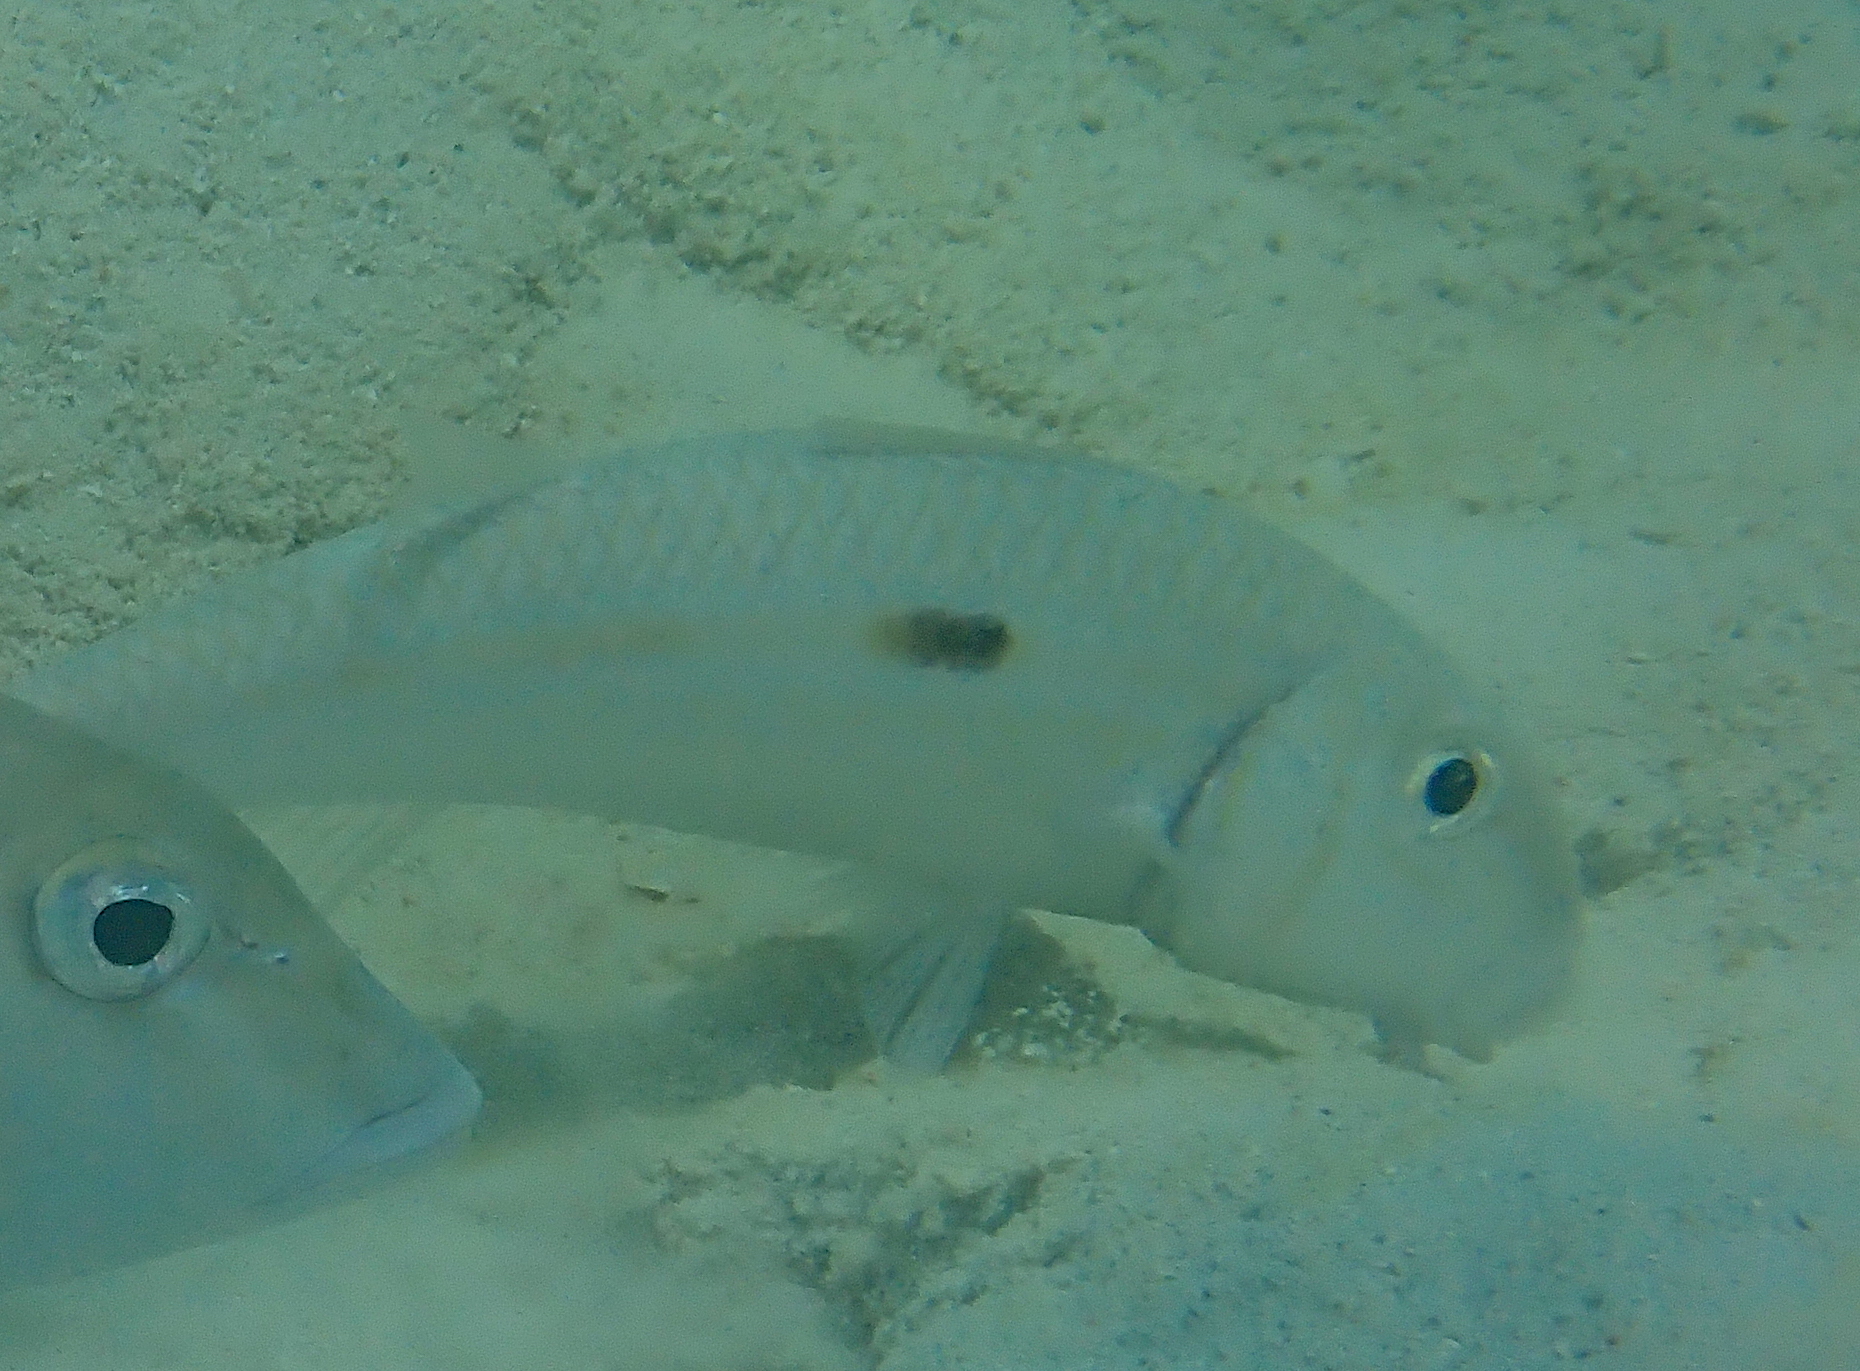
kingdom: Animalia
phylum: Chordata
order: Perciformes
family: Mullidae
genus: Mulloidichthys
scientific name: Mulloidichthys flavolineatus
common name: Yellowstripe goatfish
